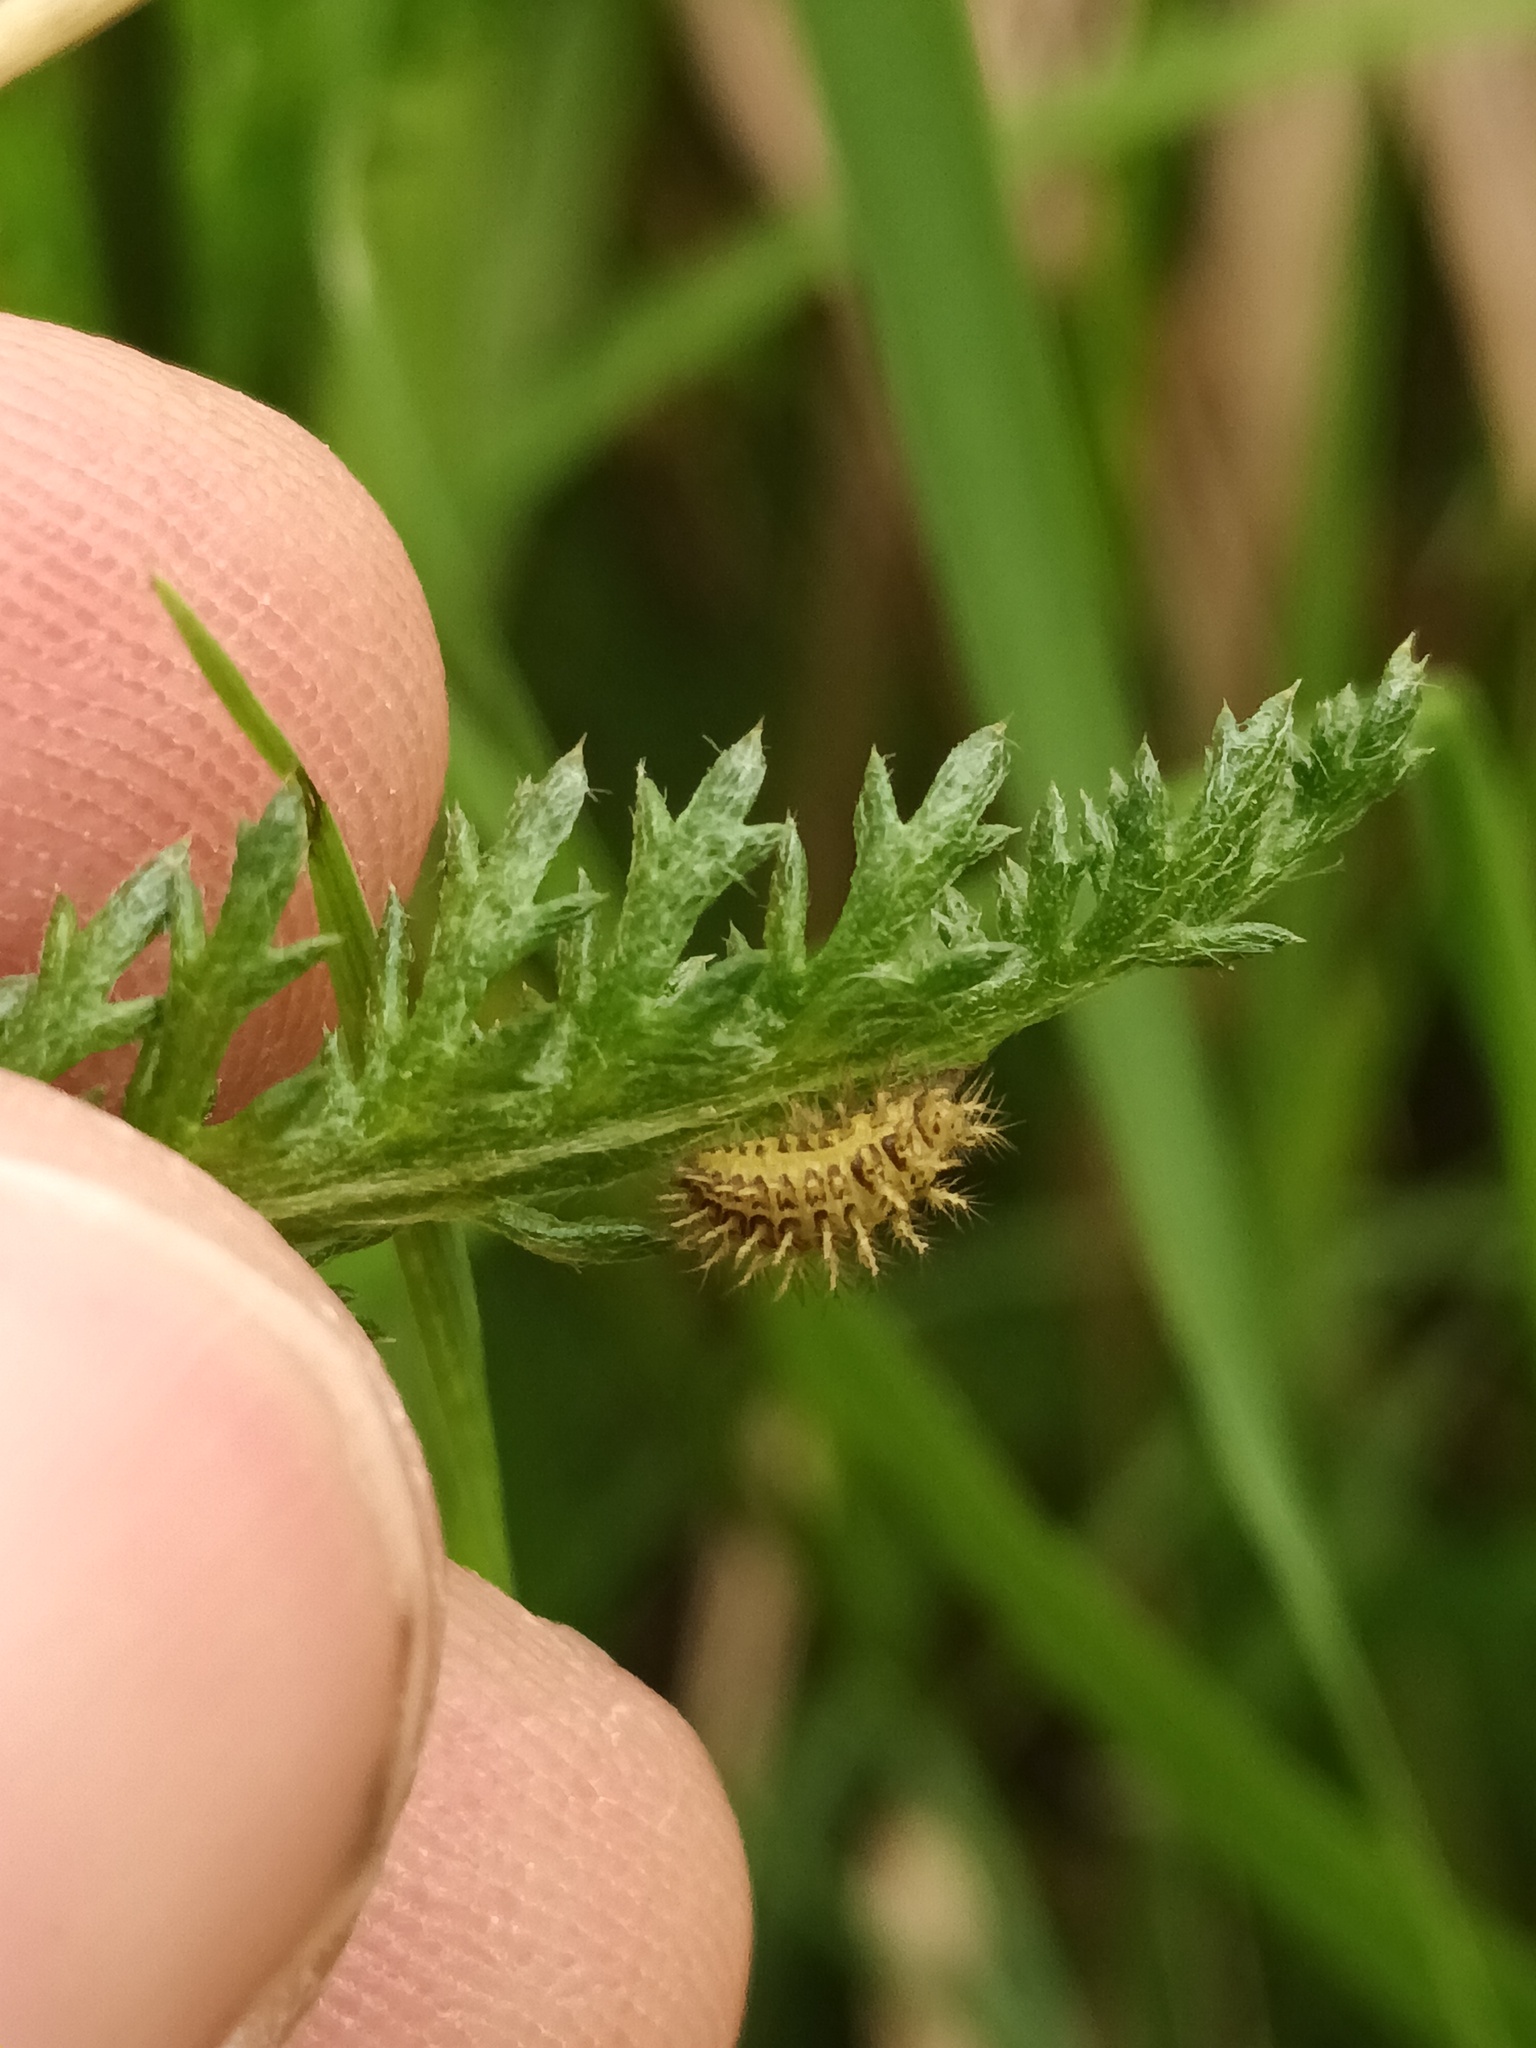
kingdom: Animalia
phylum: Arthropoda
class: Insecta
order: Coleoptera
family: Coccinellidae
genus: Subcoccinella
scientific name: Subcoccinella vigintiquatuorpunctata
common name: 24-spot ladybird
